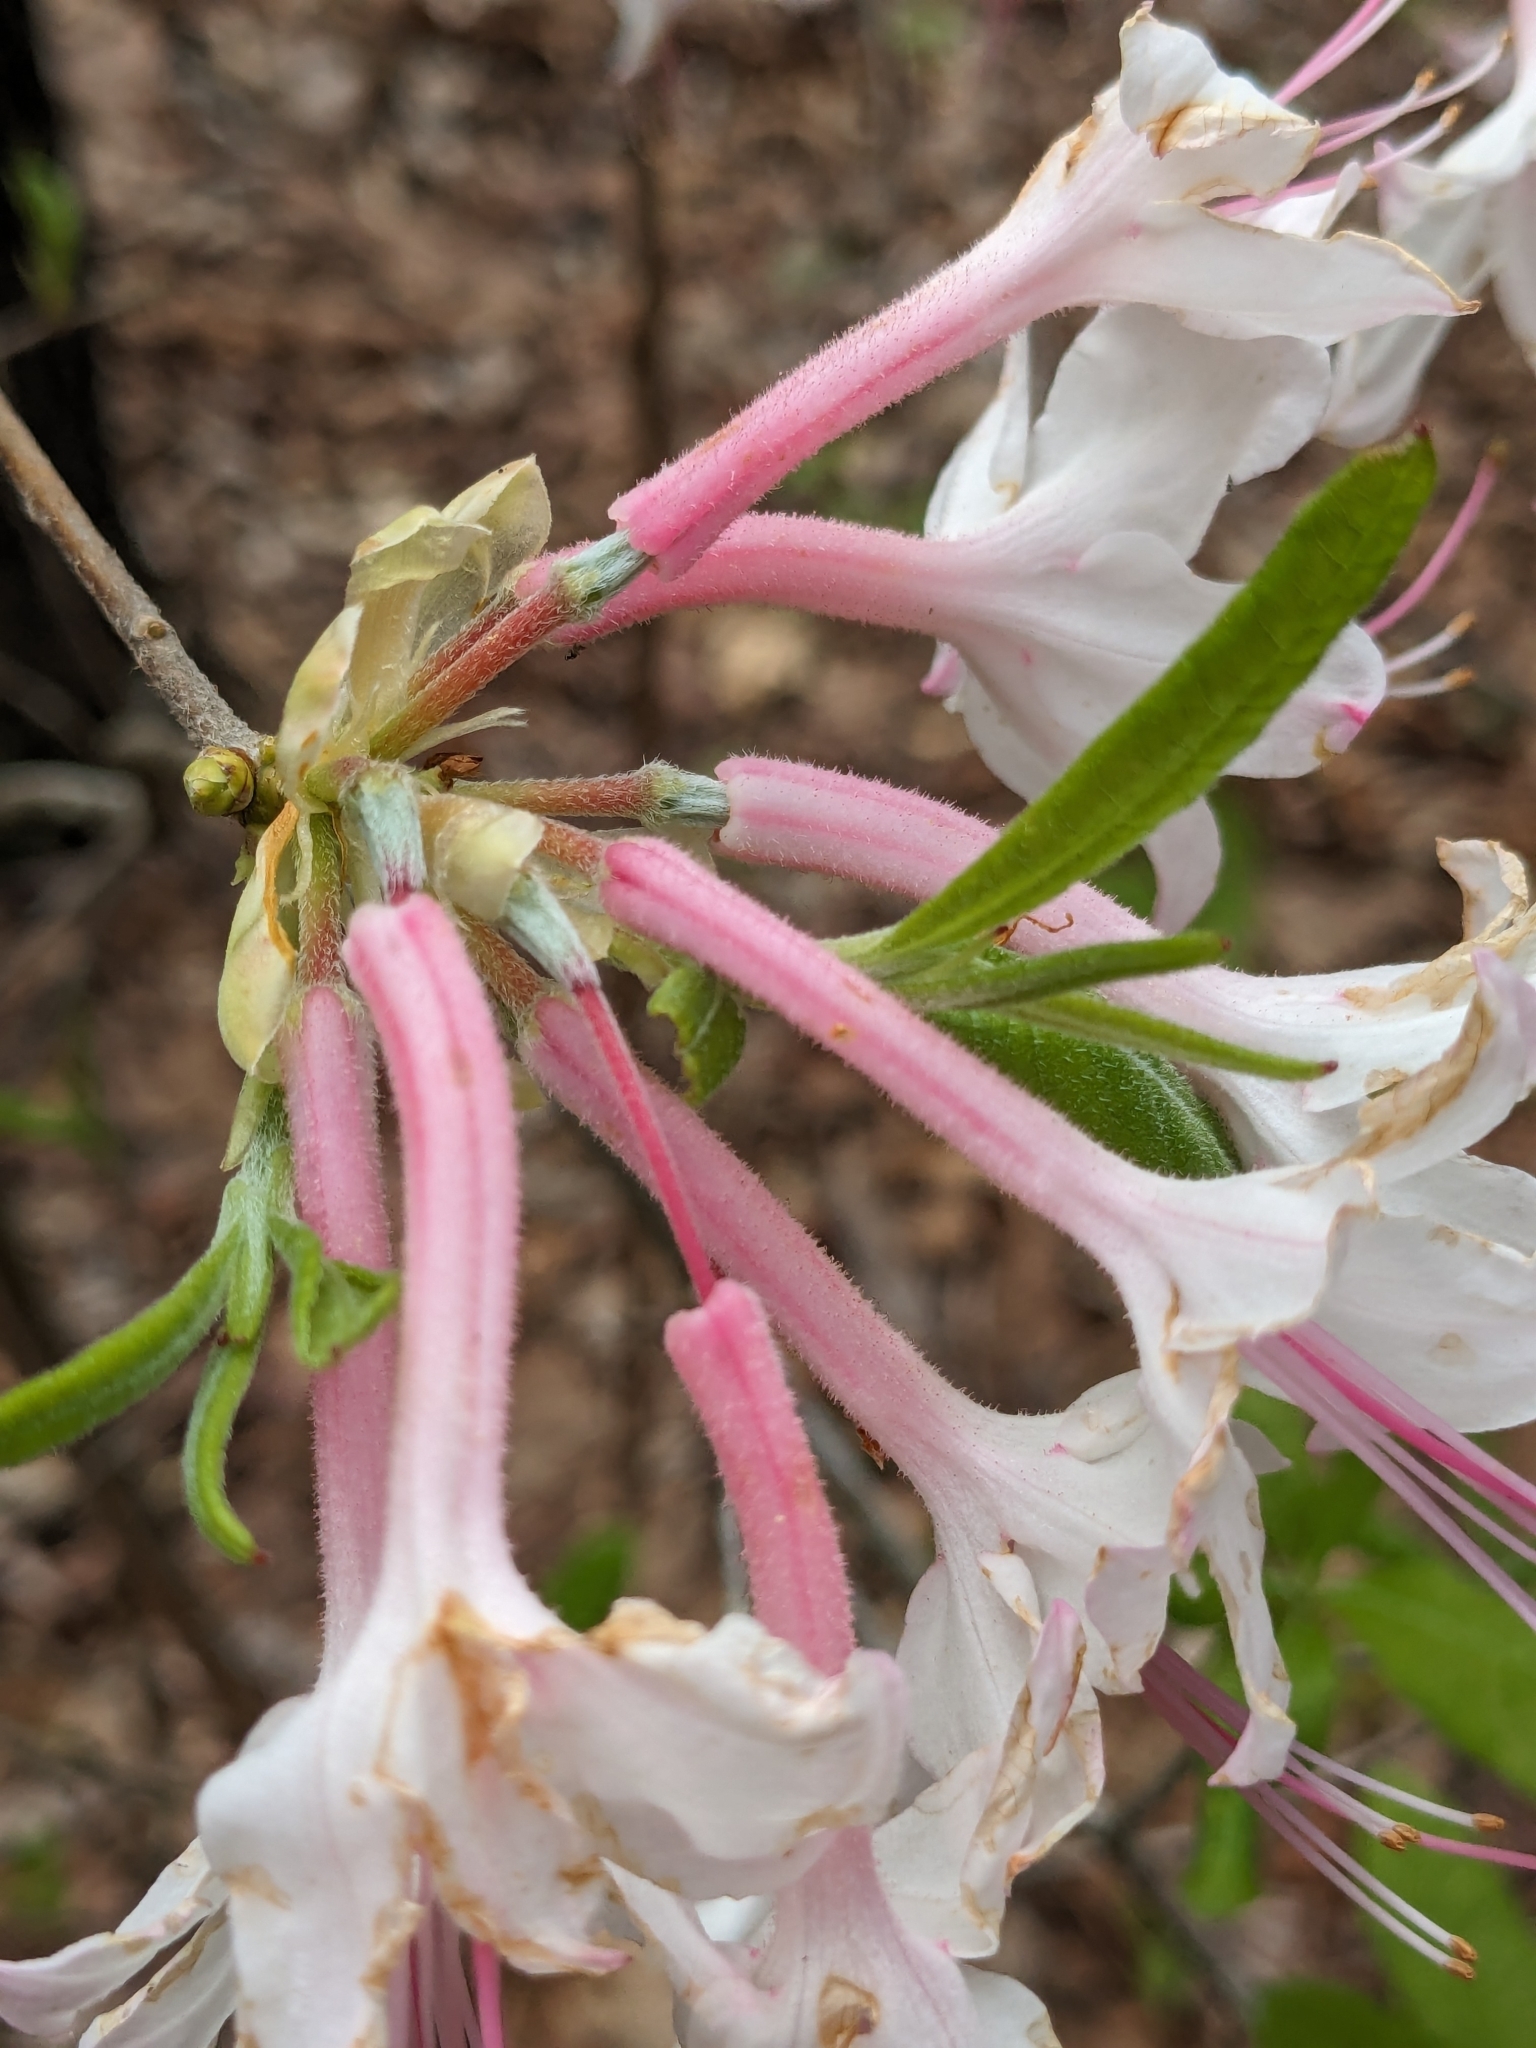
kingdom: Plantae
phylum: Tracheophyta
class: Magnoliopsida
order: Ericales
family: Ericaceae
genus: Rhododendron
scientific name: Rhododendron canescens
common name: Mountain azalea
